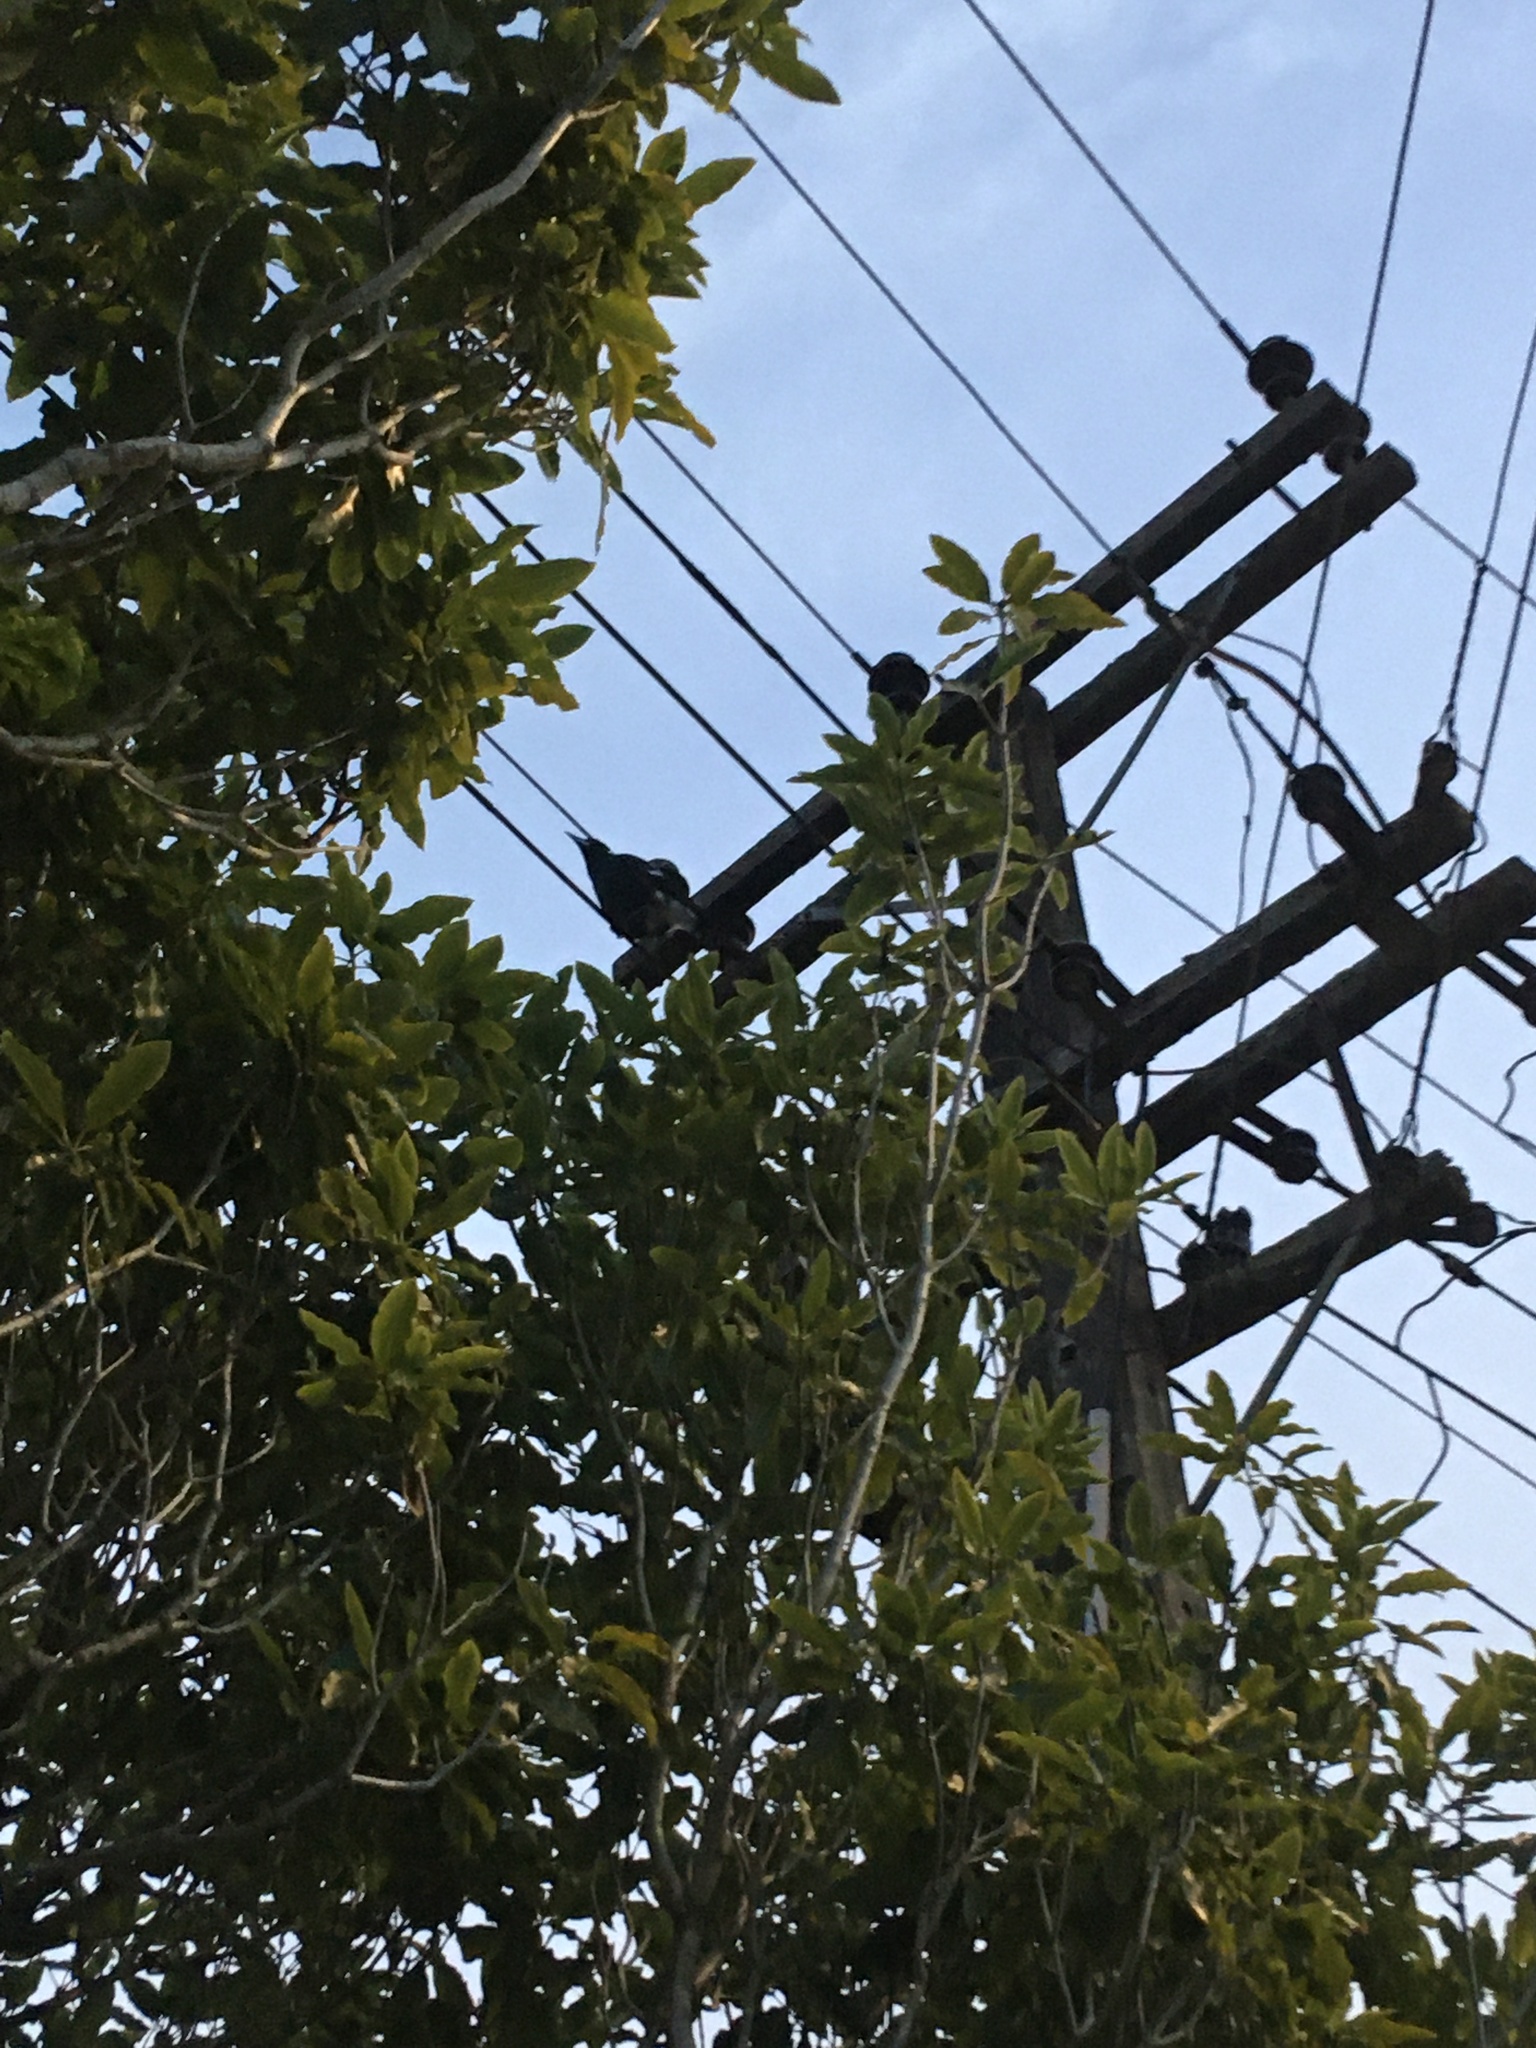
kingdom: Animalia
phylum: Chordata
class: Aves
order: Passeriformes
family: Cracticidae
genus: Gymnorhina
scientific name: Gymnorhina tibicen
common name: Australian magpie
